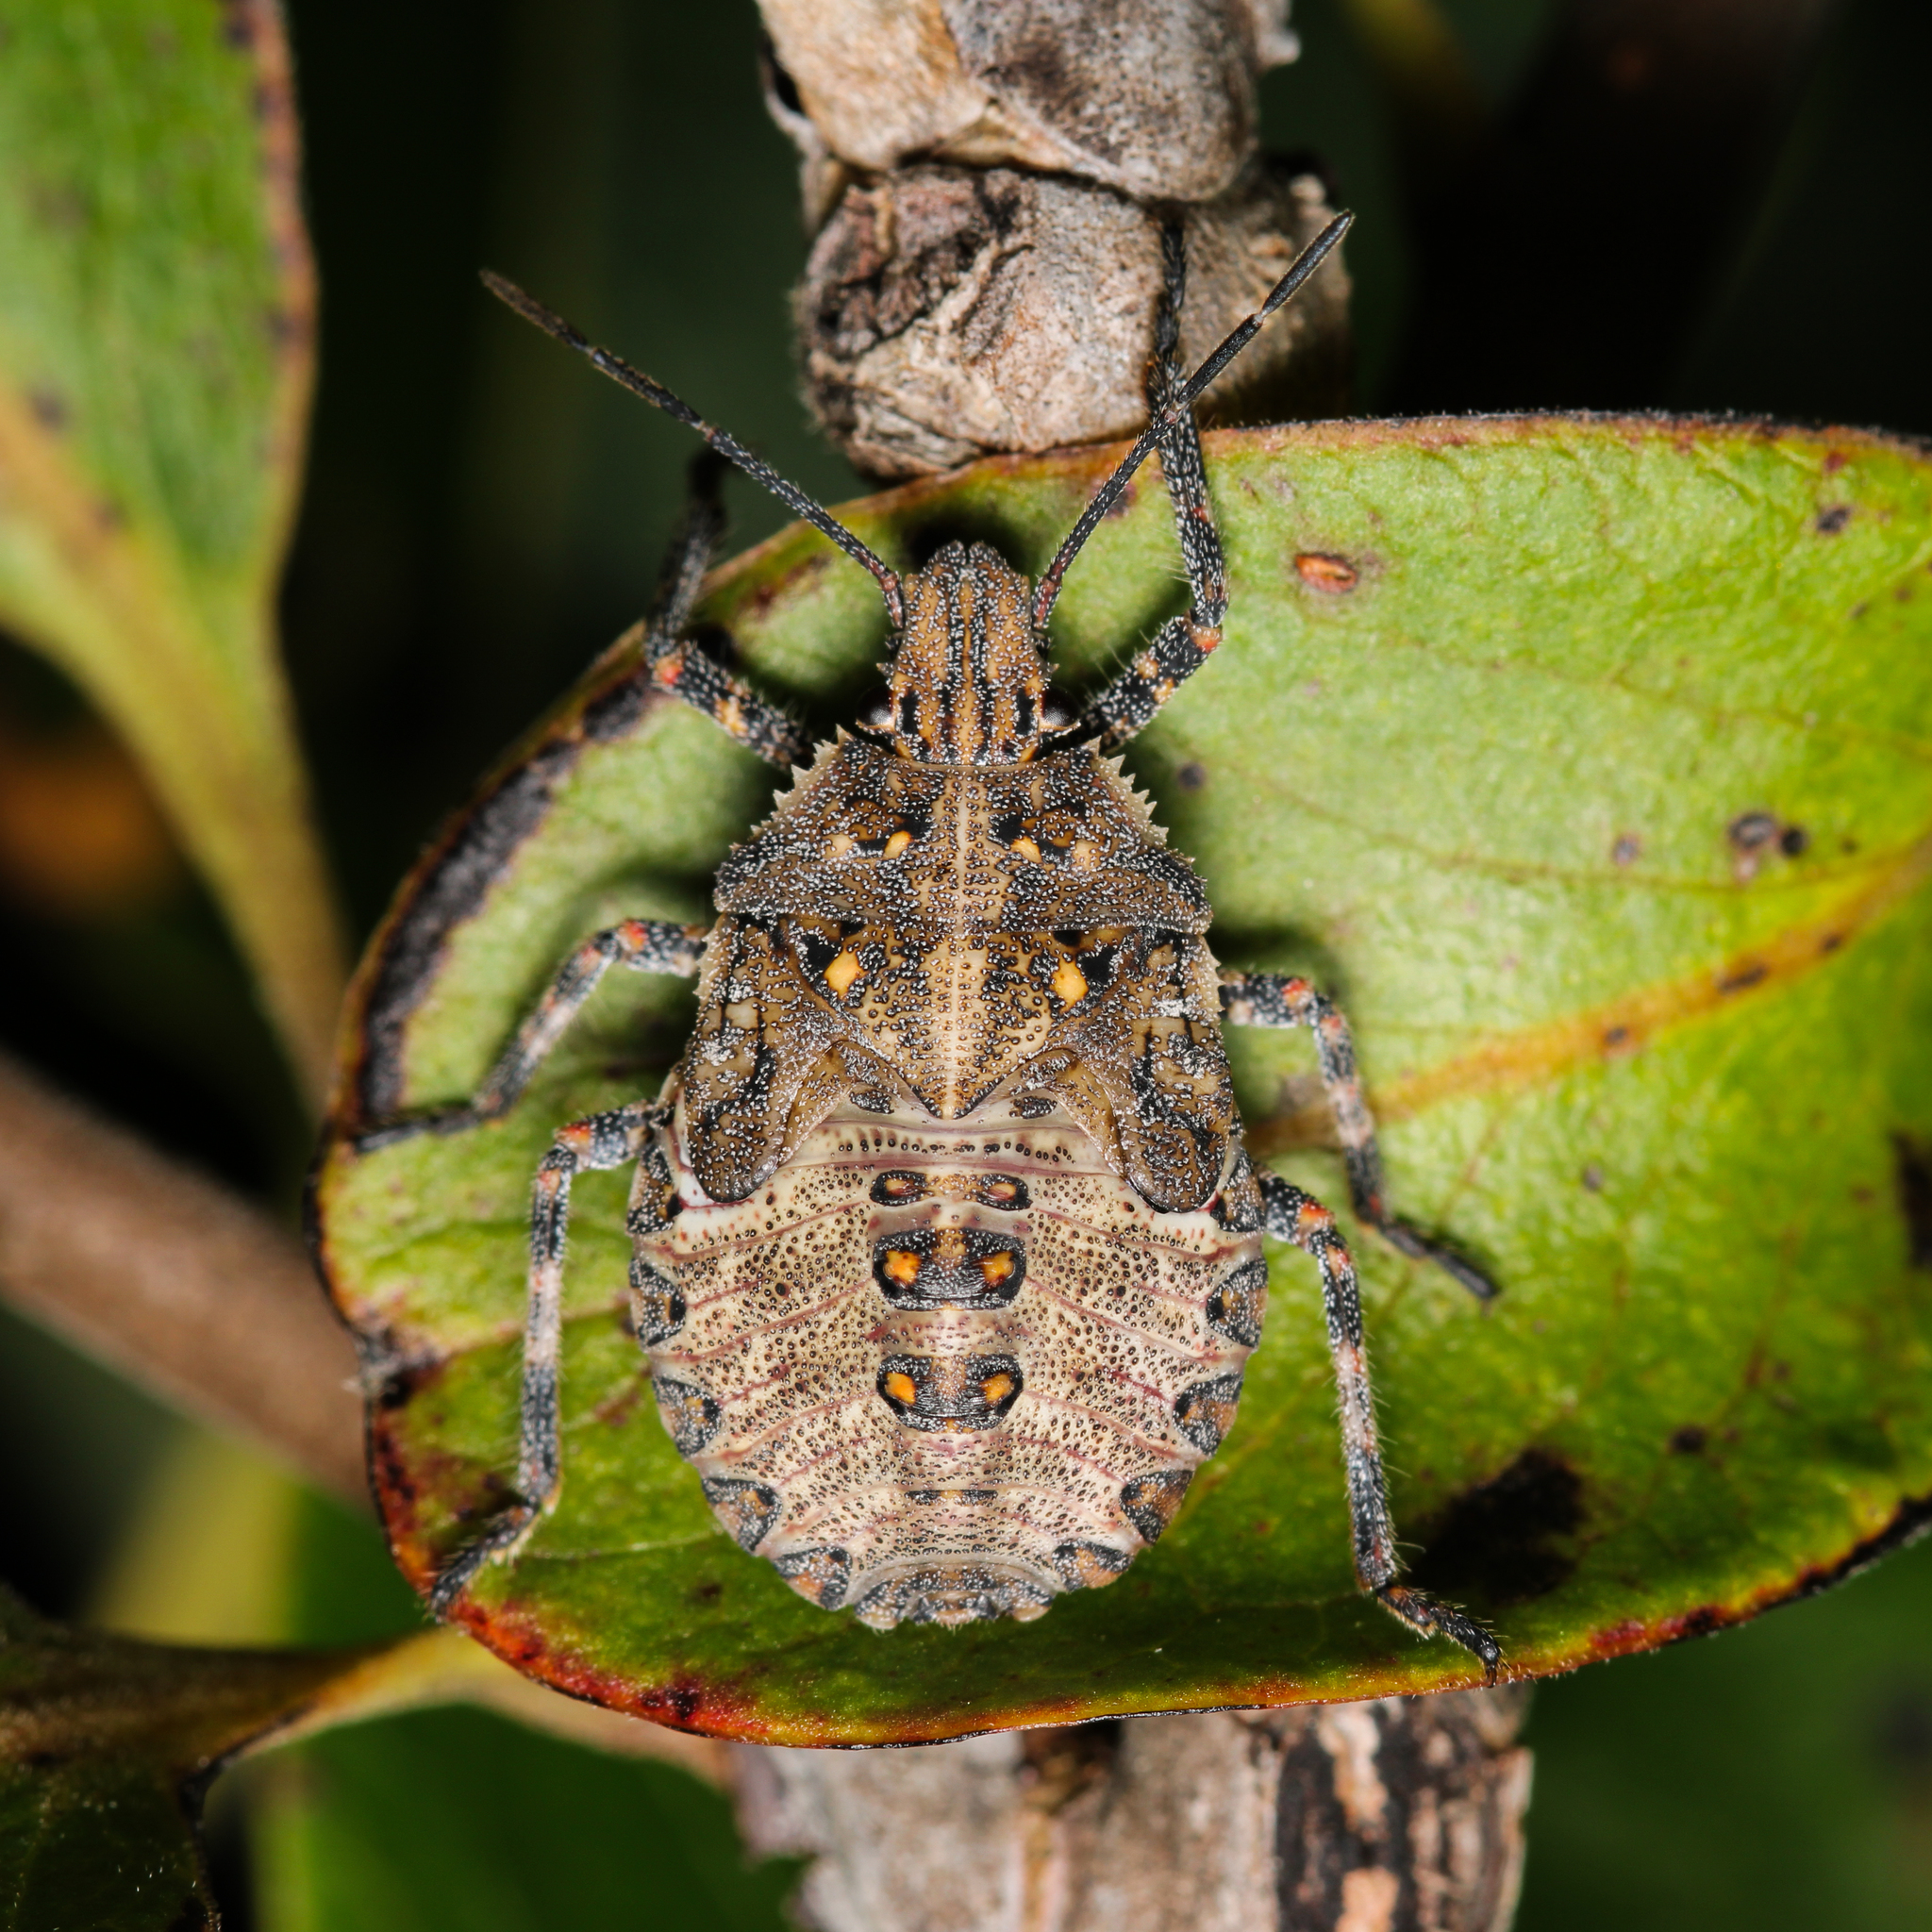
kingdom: Animalia
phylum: Arthropoda
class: Insecta
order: Hemiptera
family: Pentatomidae
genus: Brochymena
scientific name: Brochymena quadripustulata
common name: Four-humped stink bug
